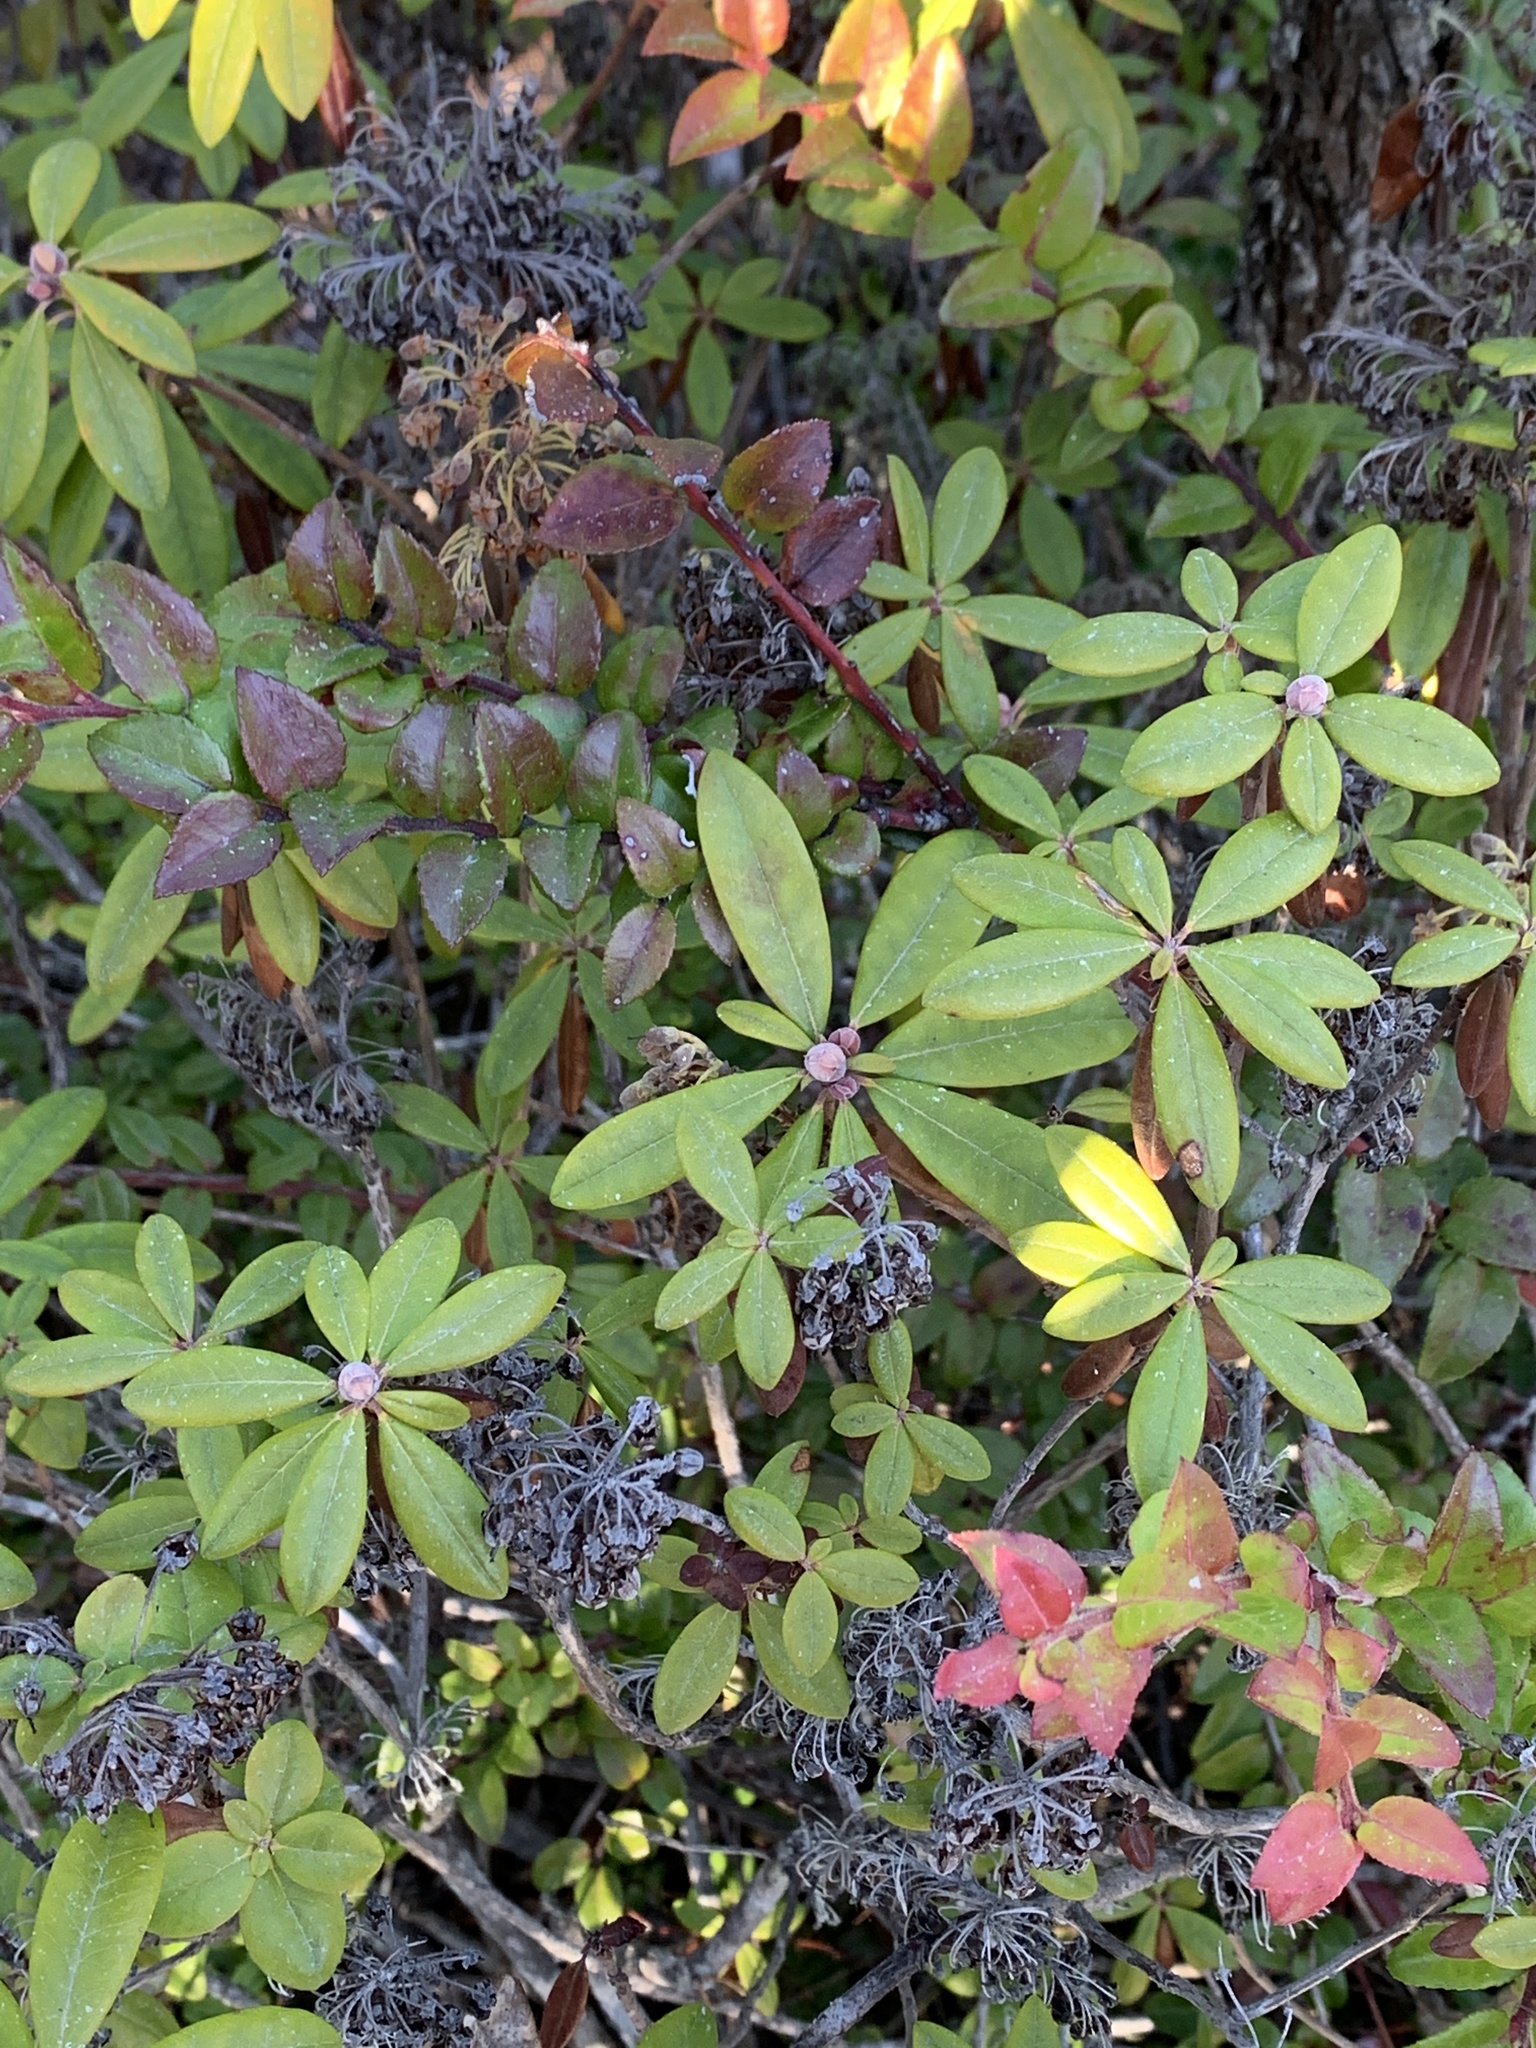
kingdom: Plantae
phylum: Tracheophyta
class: Magnoliopsida
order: Ericales
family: Ericaceae
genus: Rhododendron
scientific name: Rhododendron columbianum
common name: Western labrador tea
